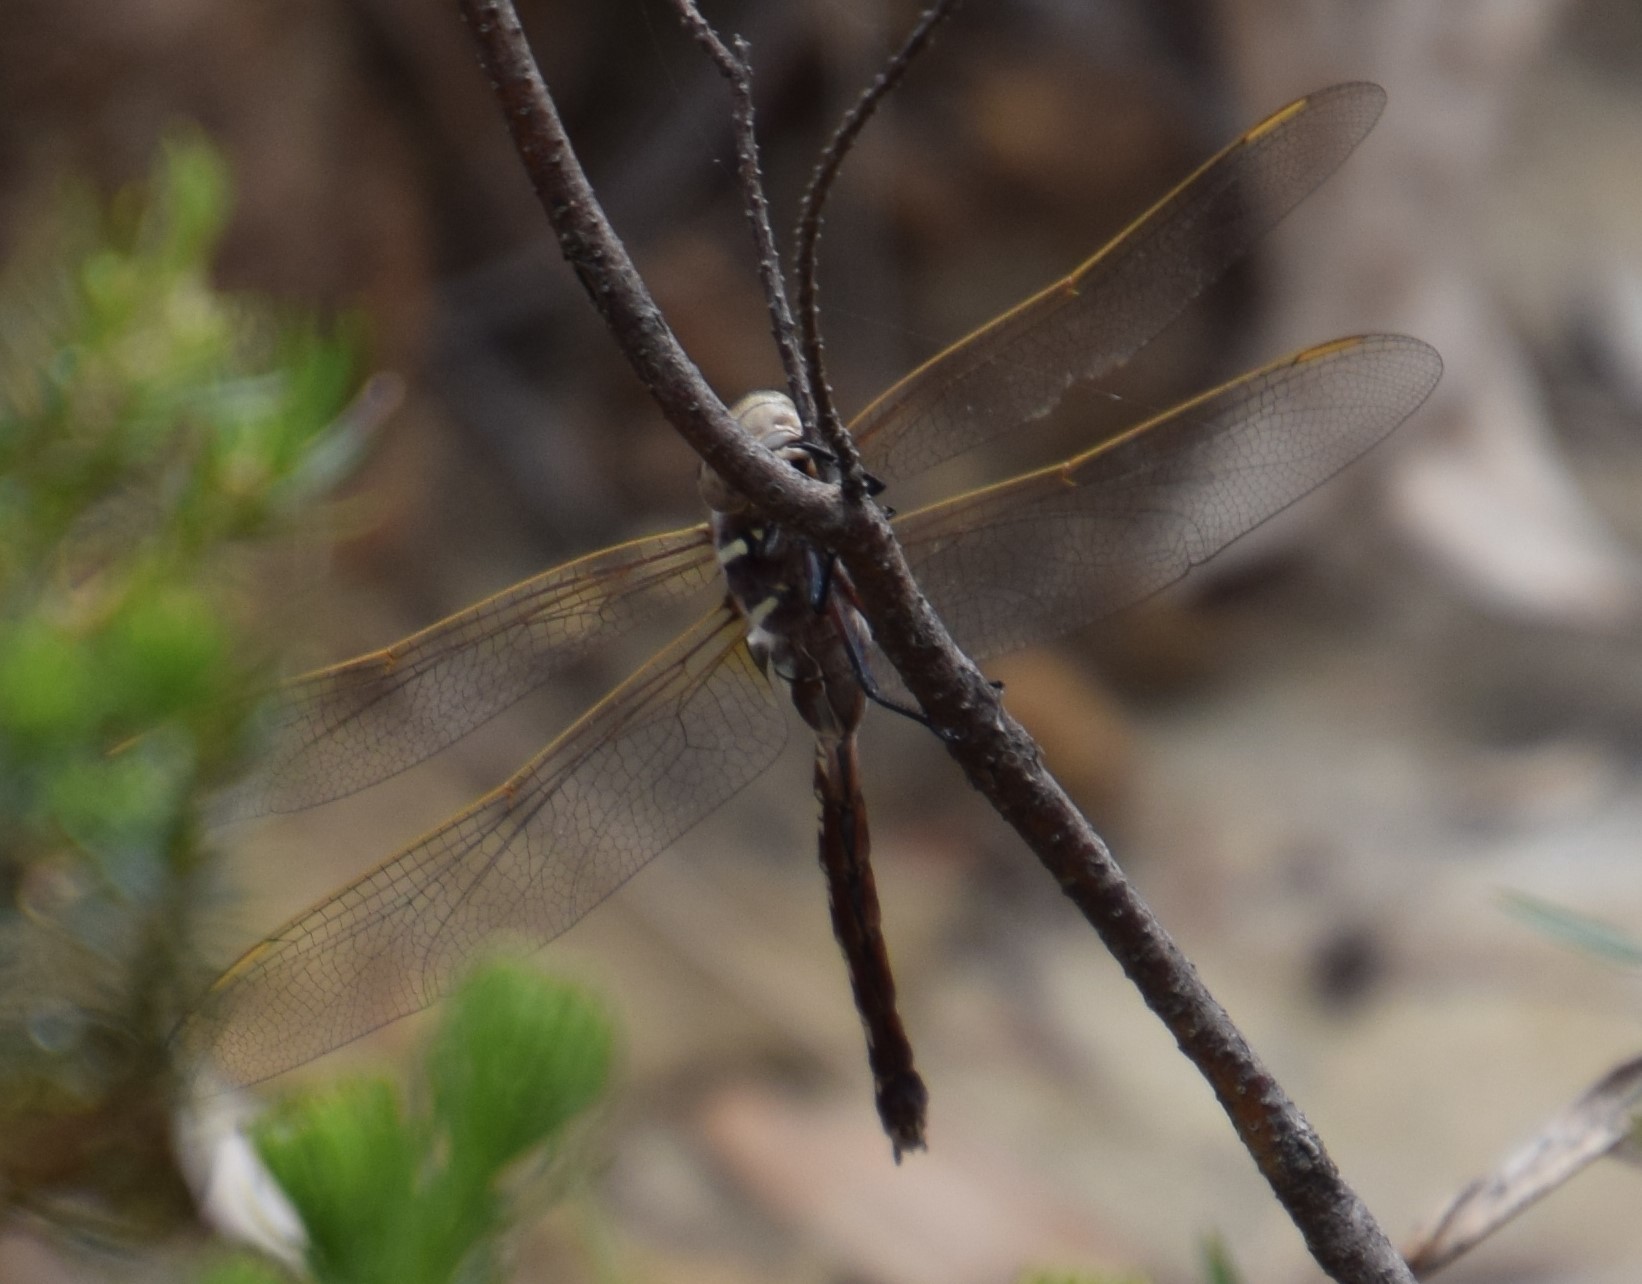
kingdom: Animalia
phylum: Arthropoda
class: Insecta
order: Odonata
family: Aeshnidae
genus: Aeshna
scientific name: Aeshna brevistyla
